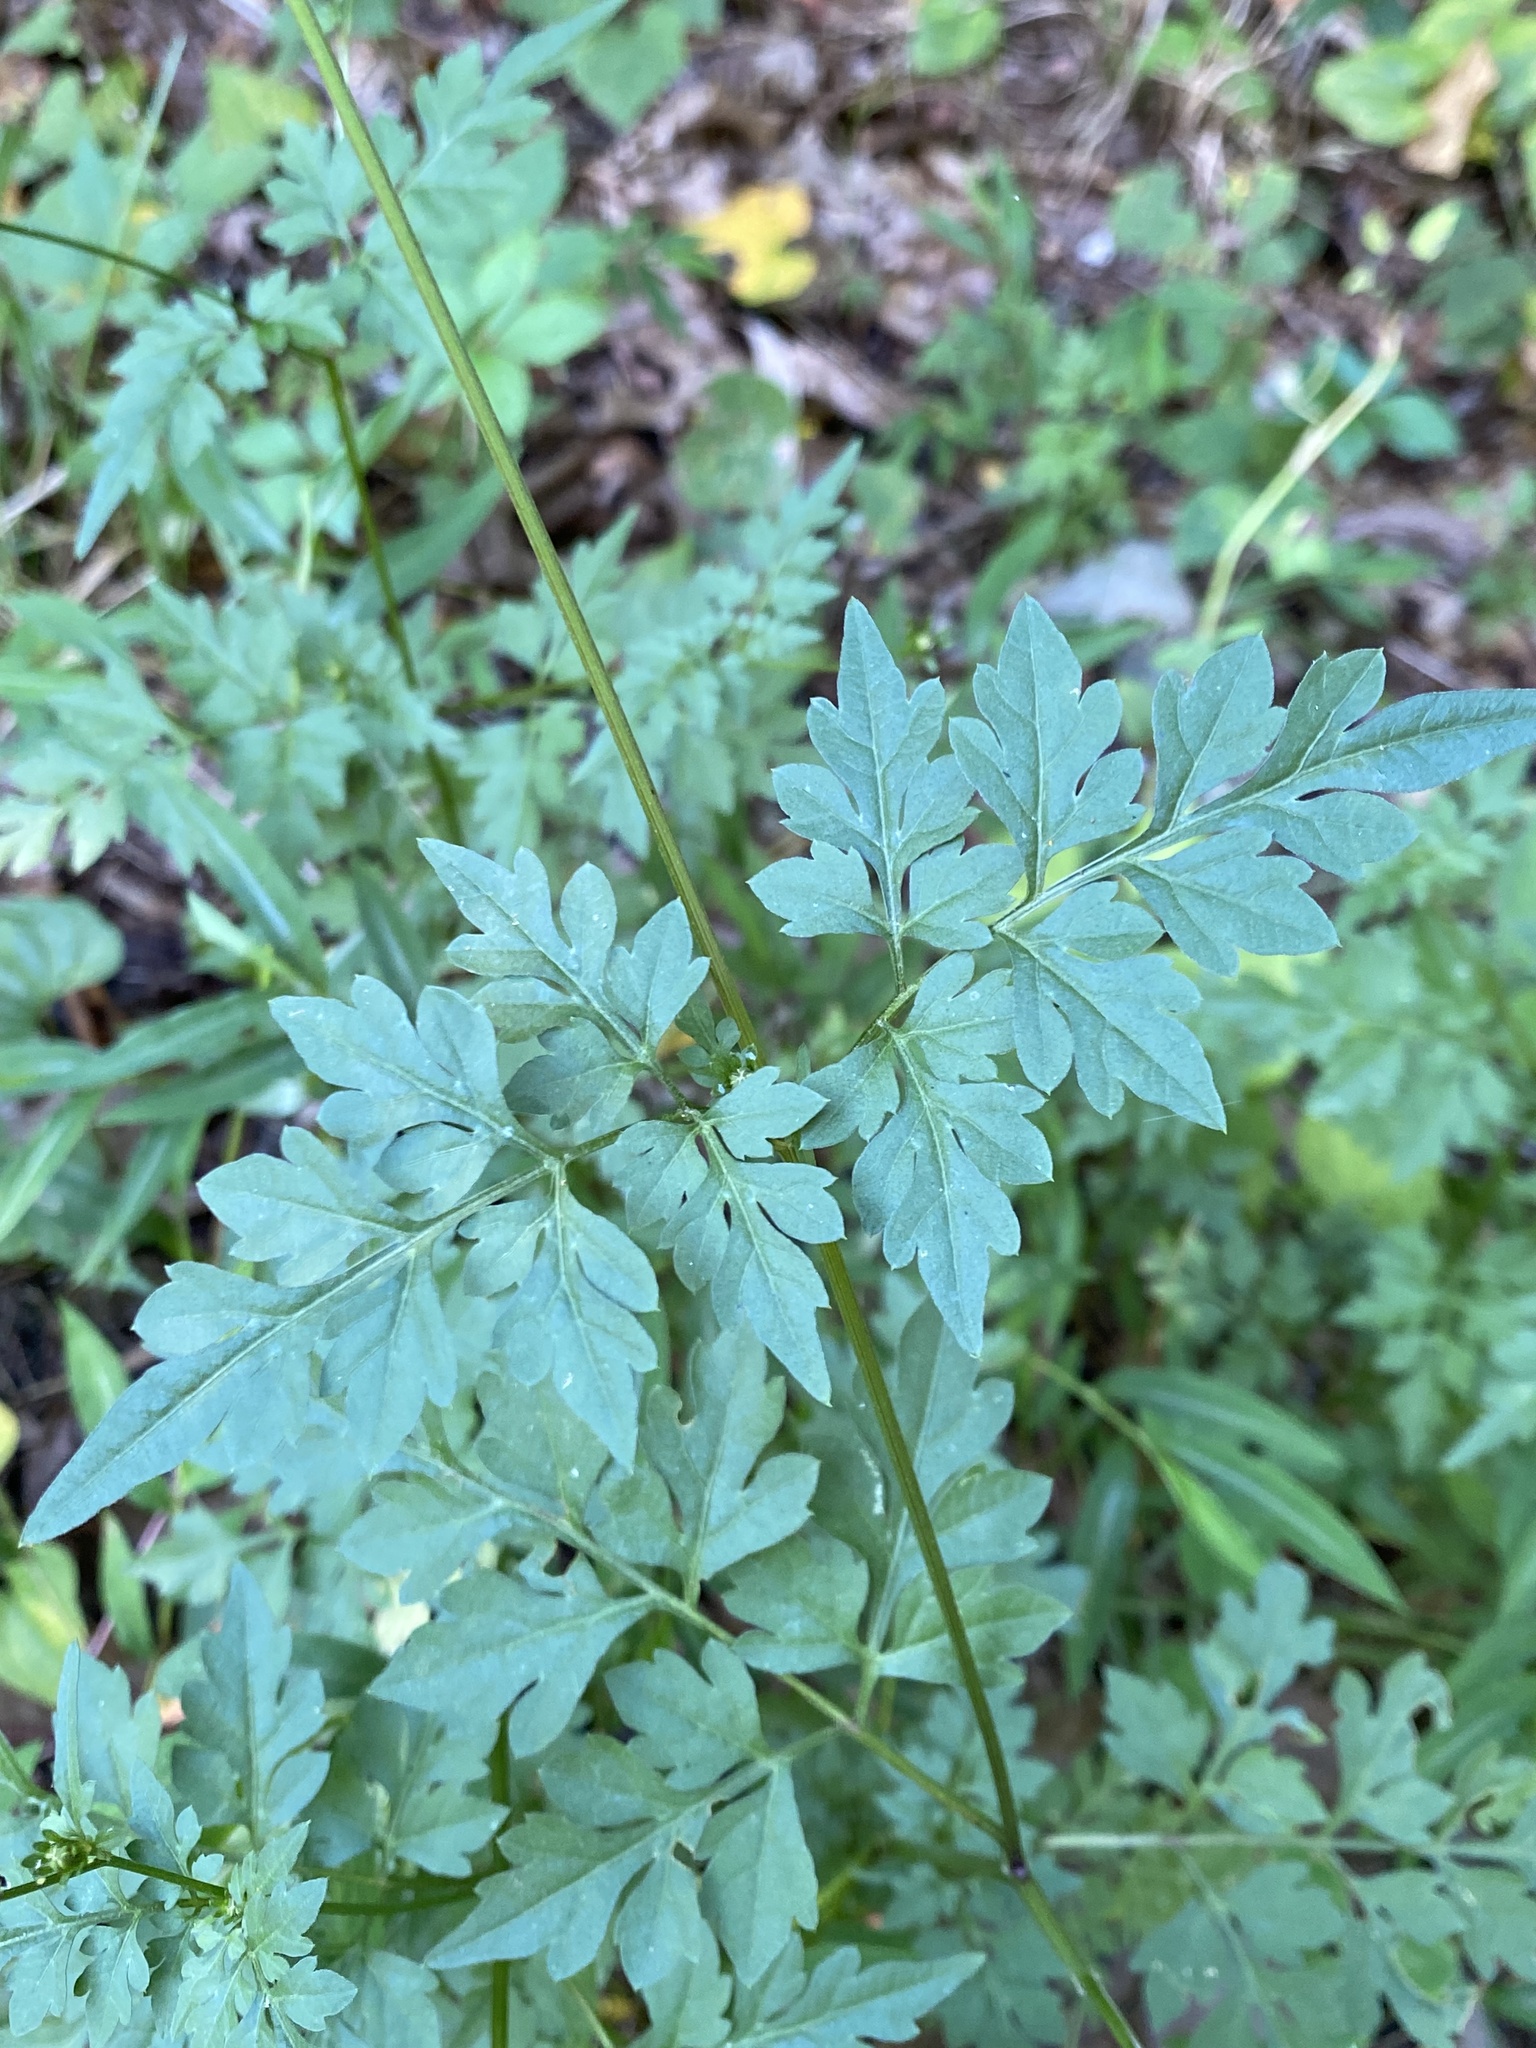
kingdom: Plantae
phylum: Tracheophyta
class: Magnoliopsida
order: Asterales
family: Asteraceae
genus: Bidens
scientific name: Bidens bipinnata
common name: Spanish-needles
